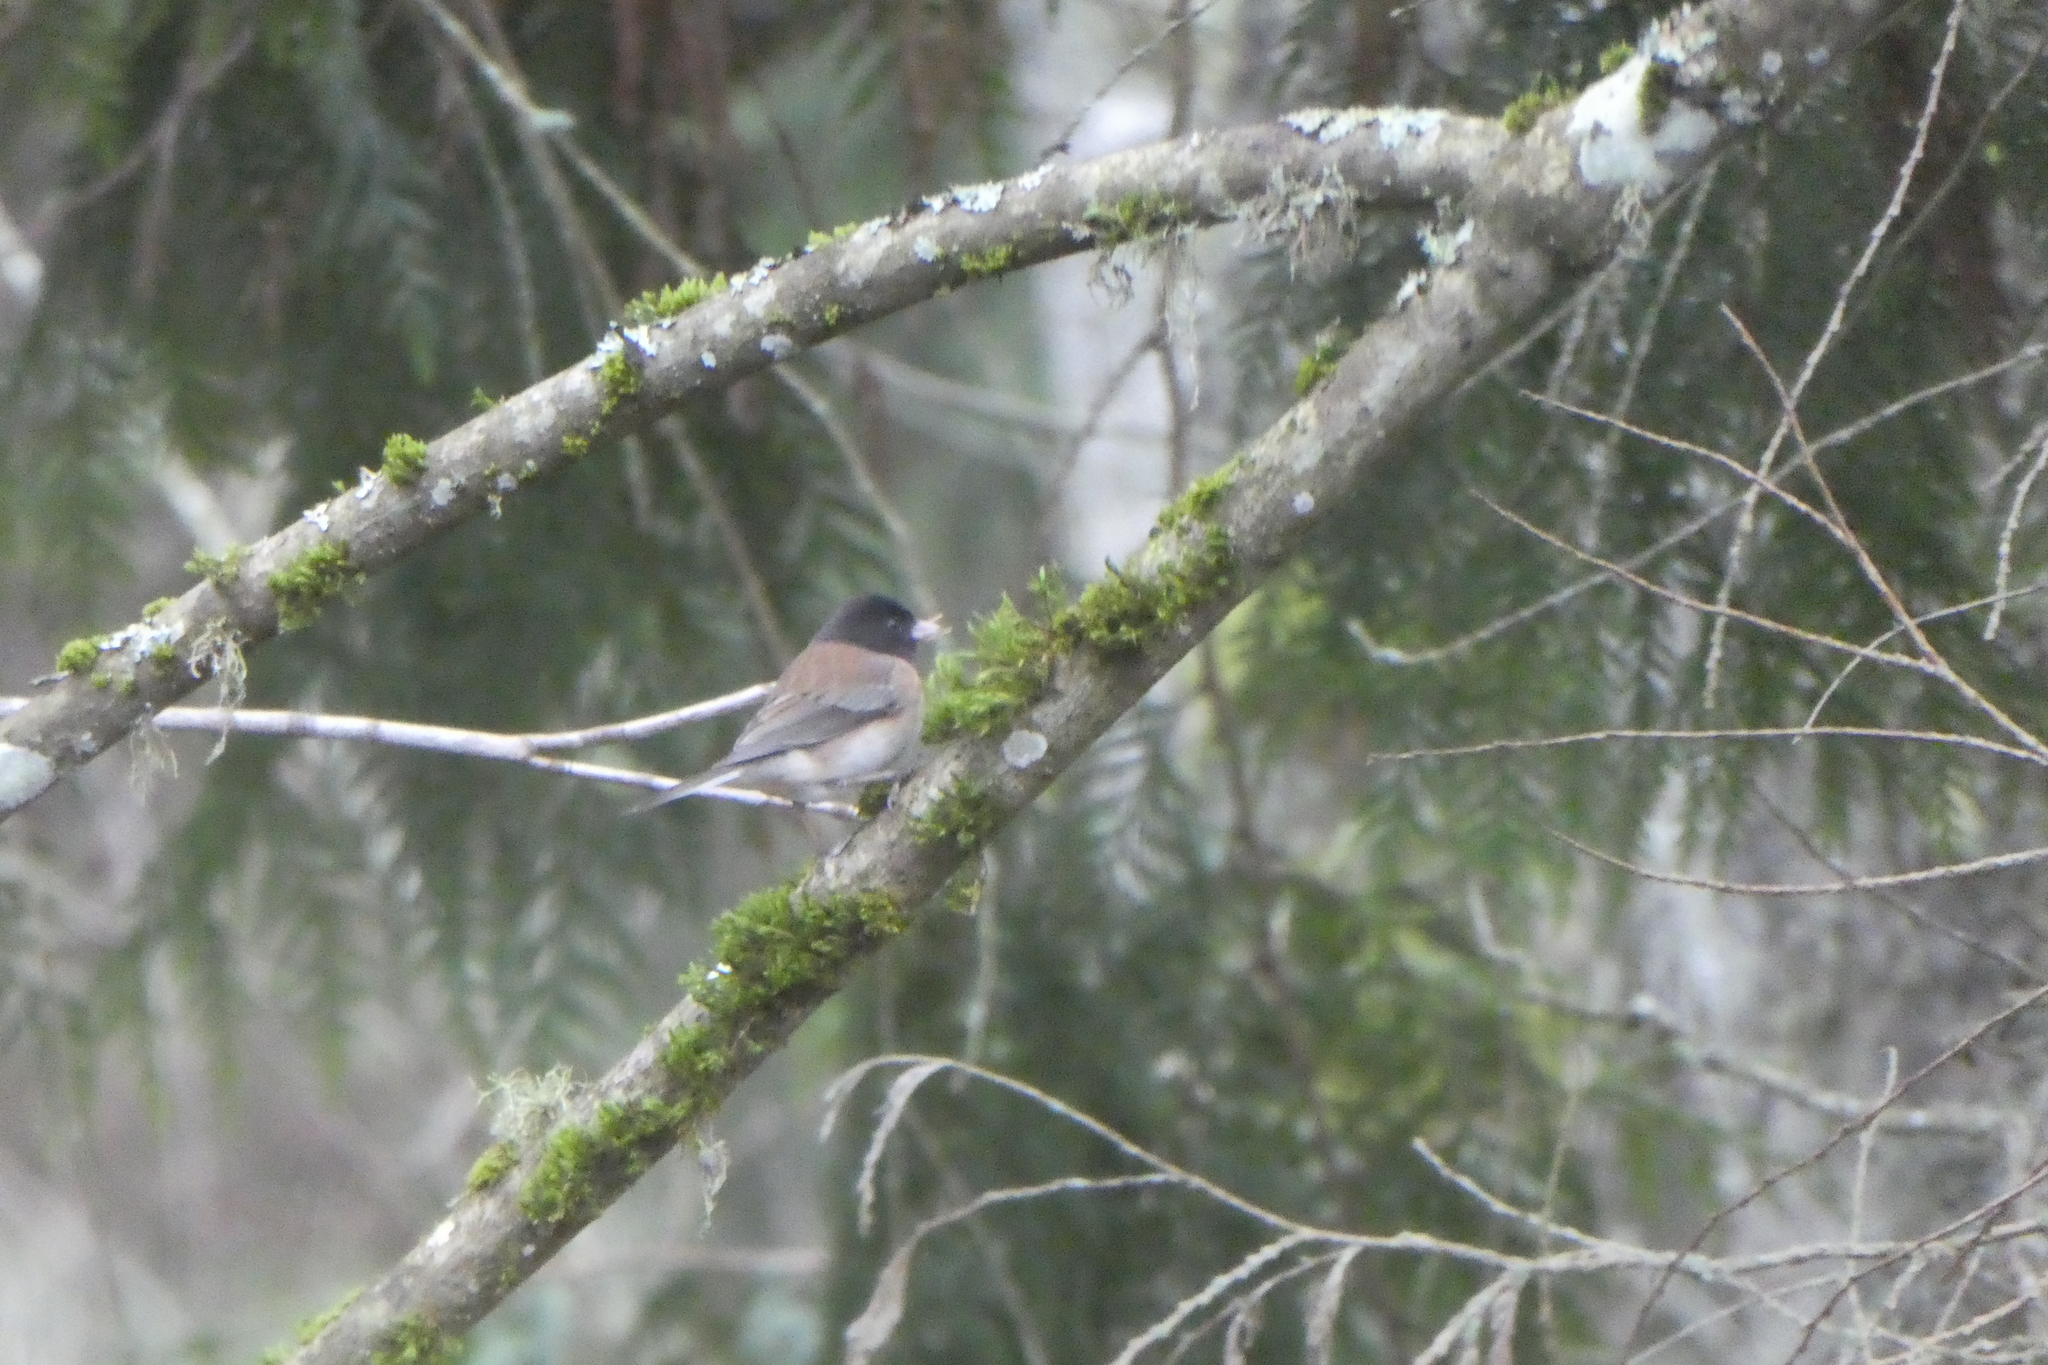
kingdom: Animalia
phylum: Chordata
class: Aves
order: Passeriformes
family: Passerellidae
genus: Junco
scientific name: Junco hyemalis
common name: Dark-eyed junco
